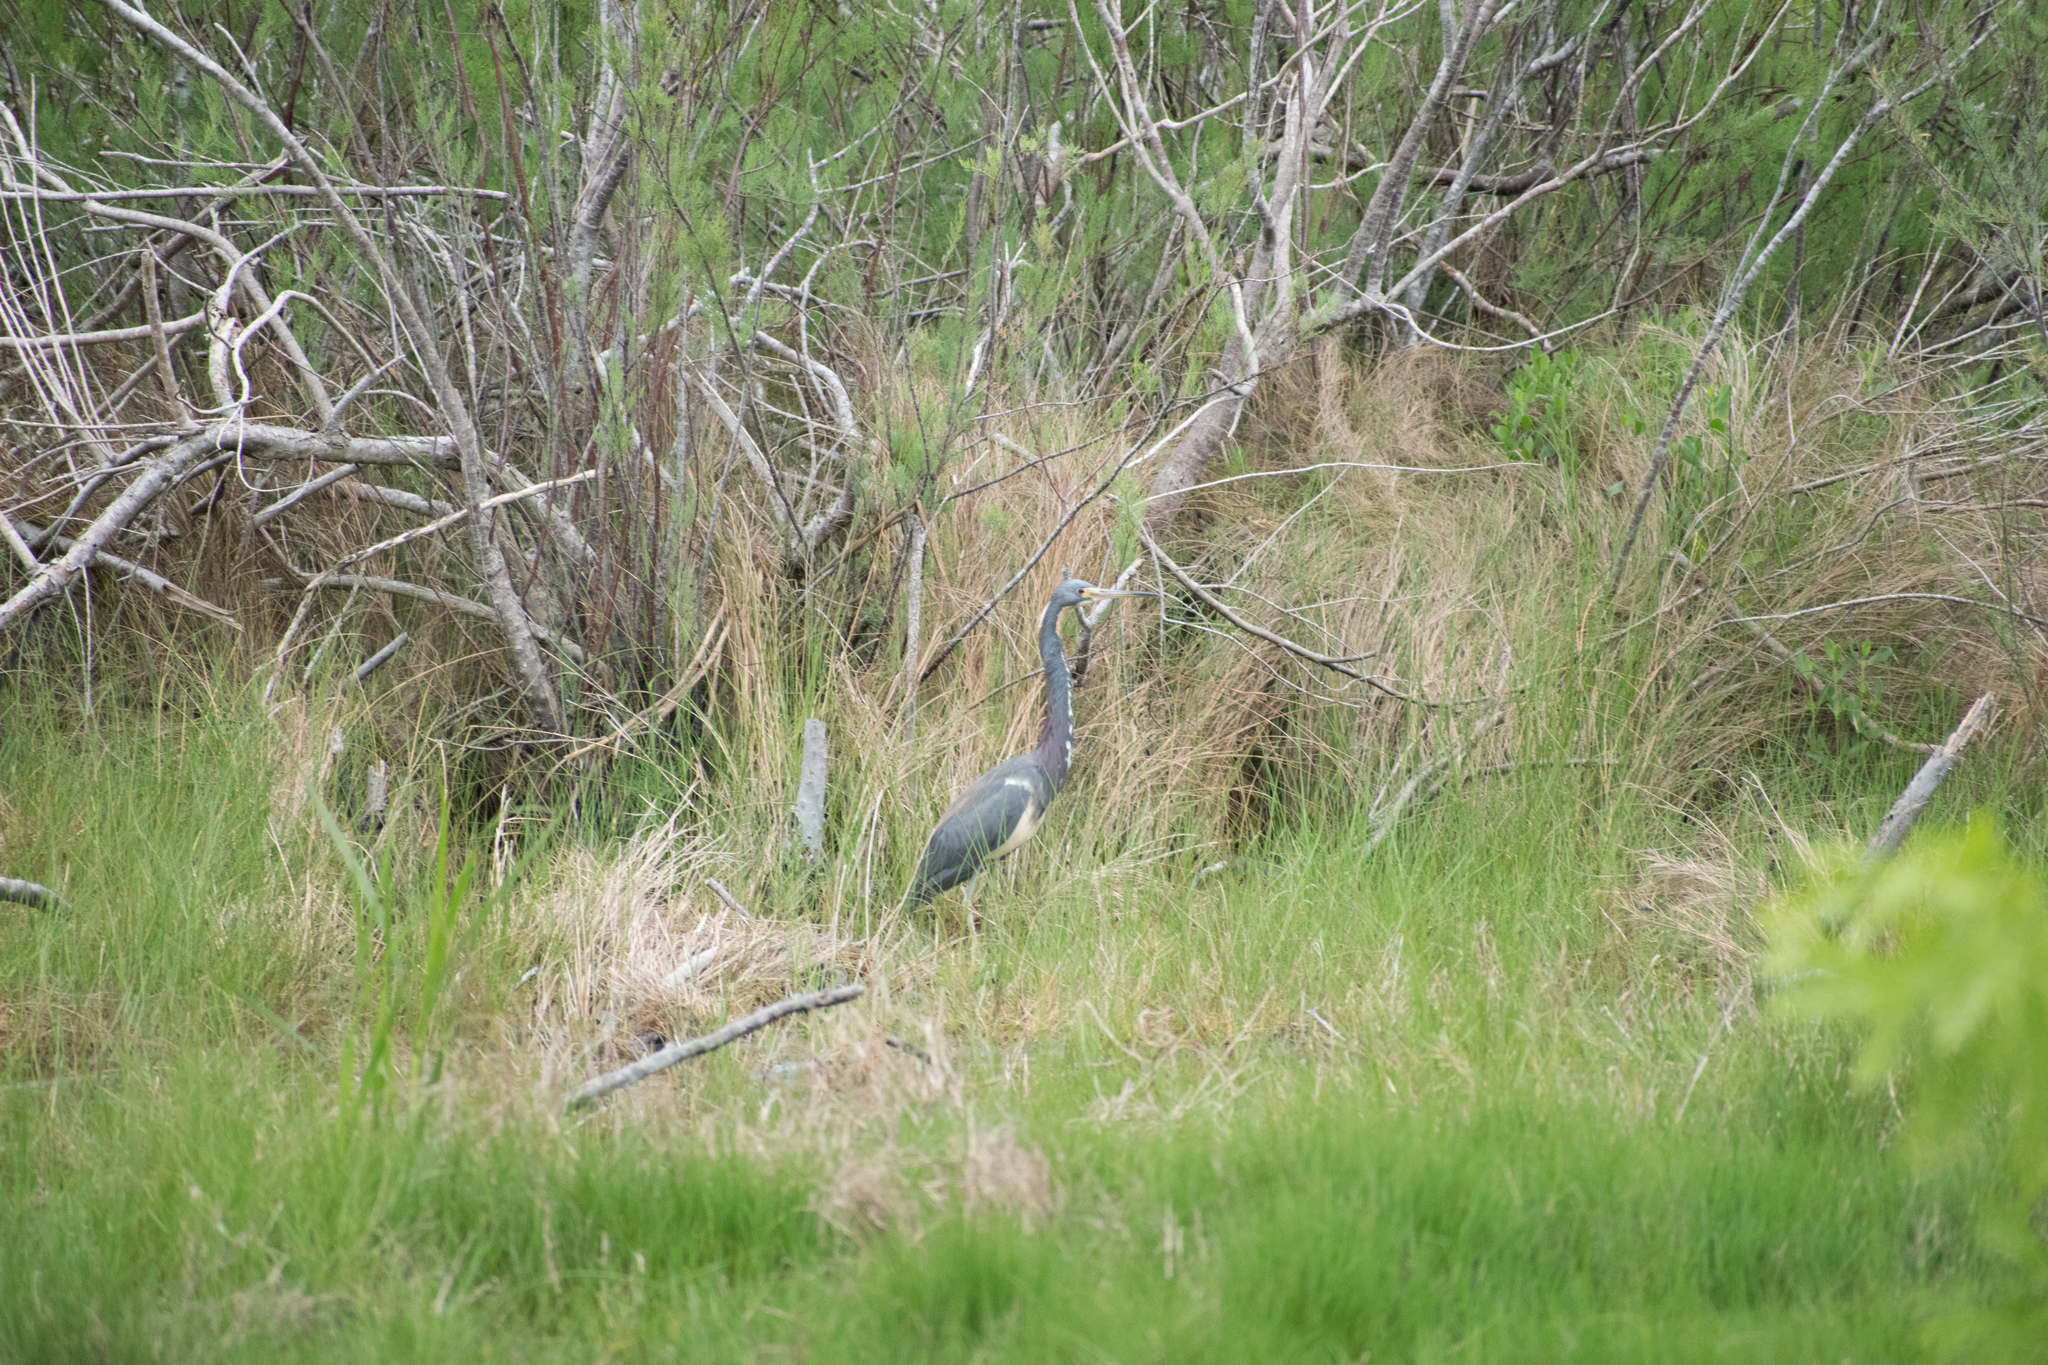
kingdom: Animalia
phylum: Chordata
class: Aves
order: Pelecaniformes
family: Ardeidae
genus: Egretta
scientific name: Egretta tricolor
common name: Tricolored heron
